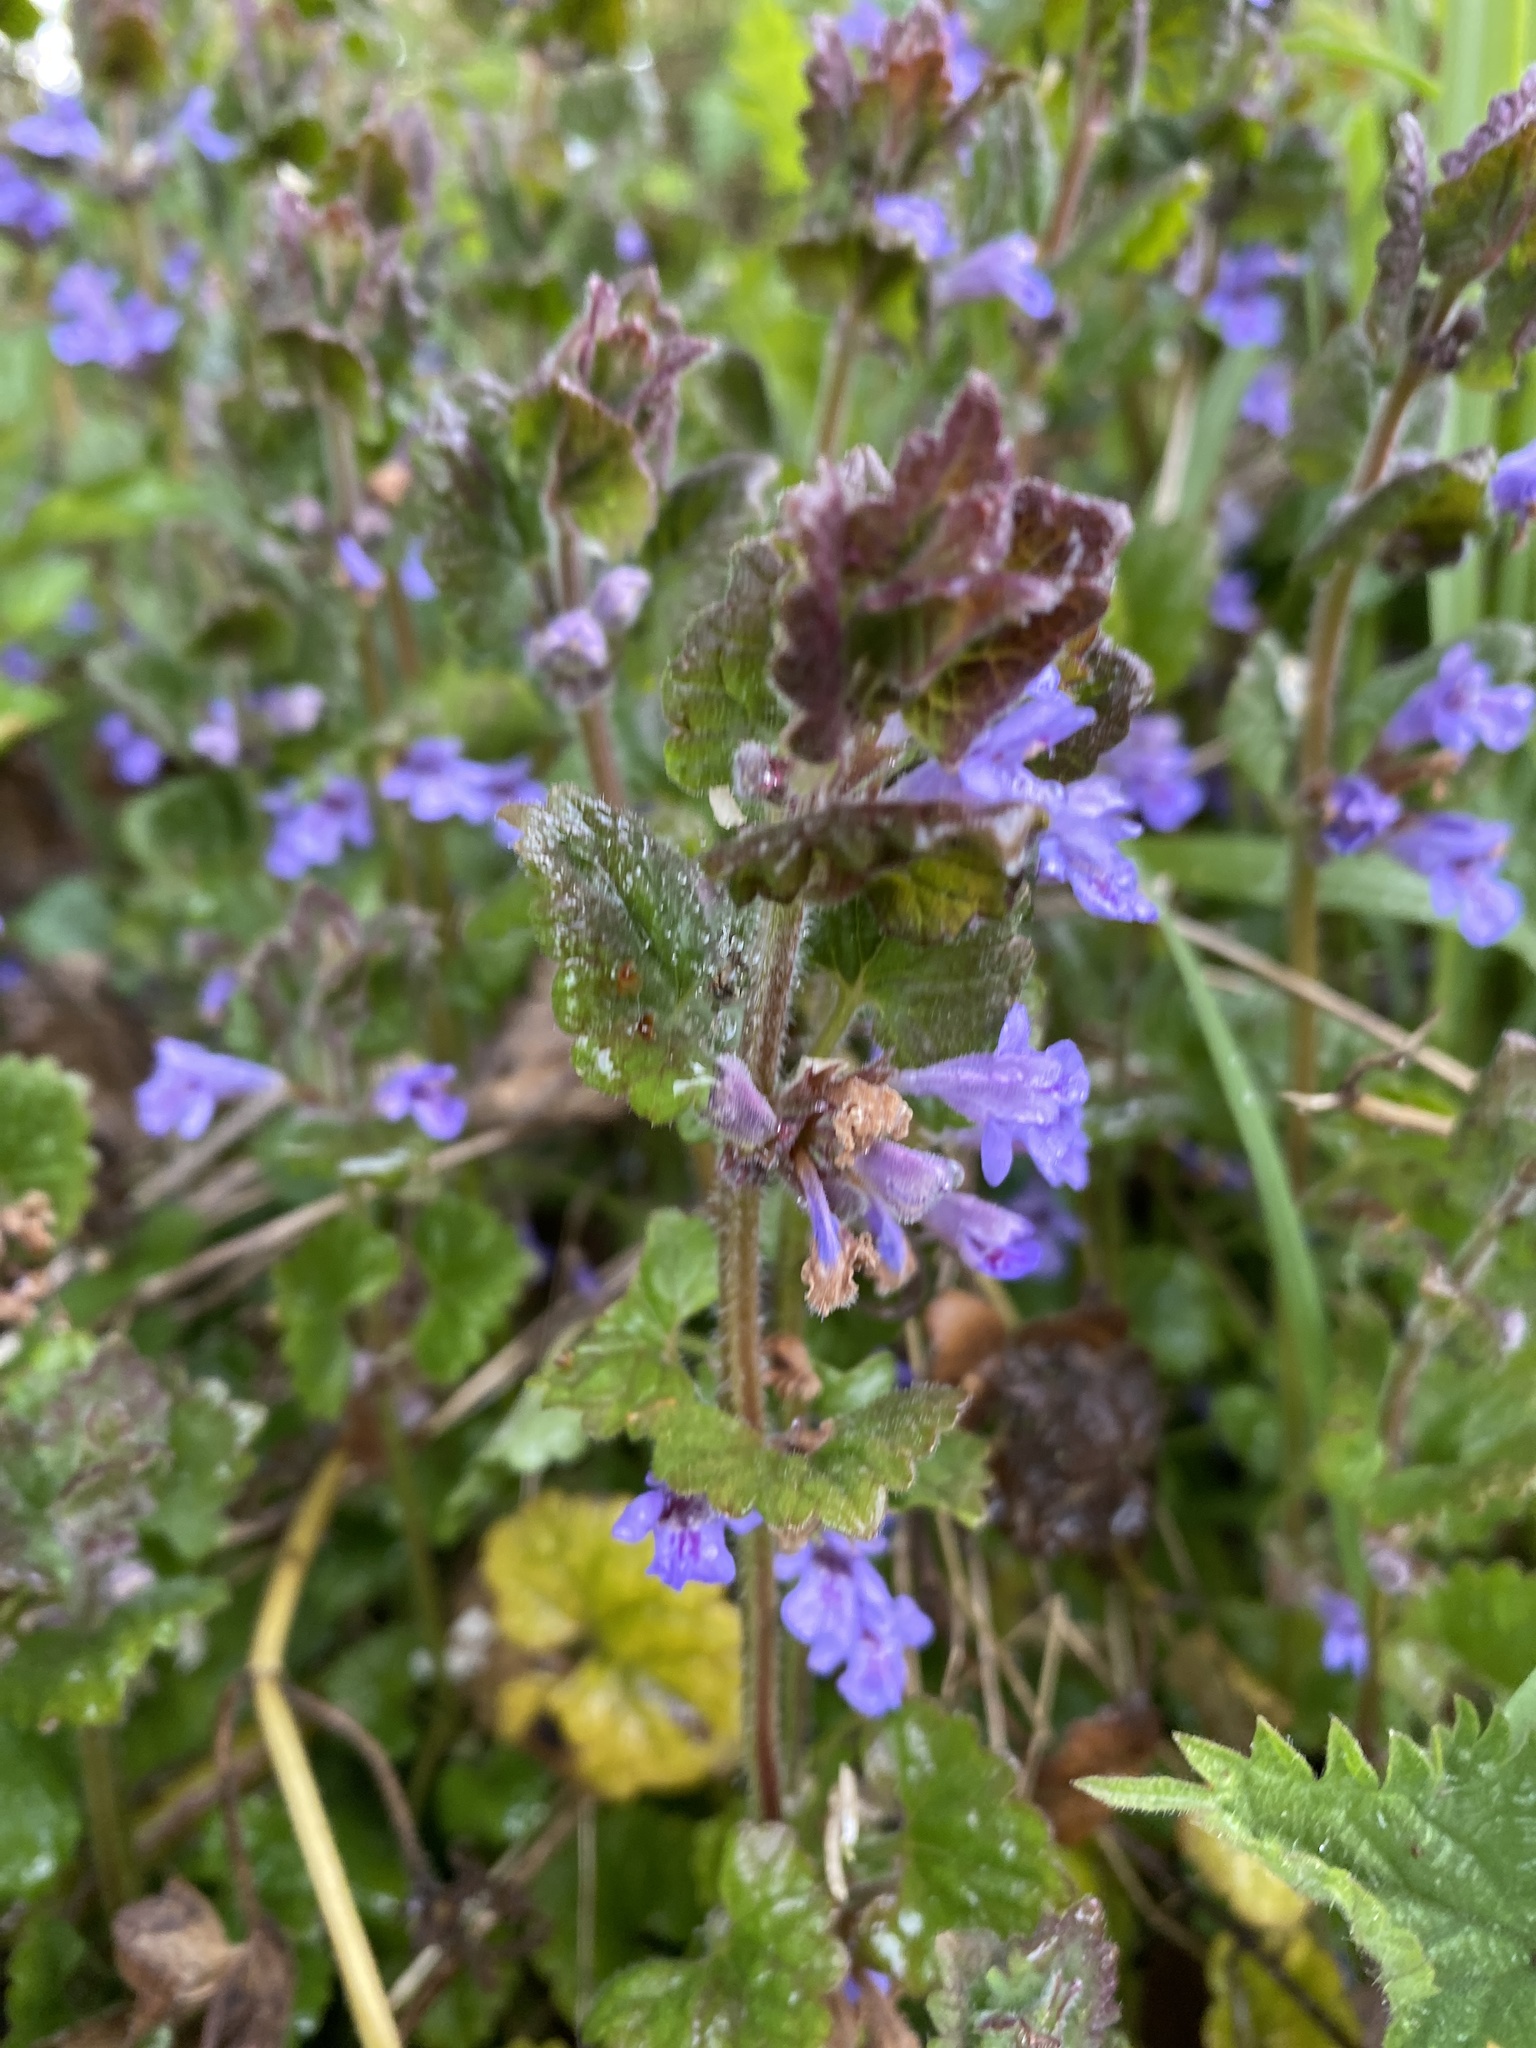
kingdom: Plantae
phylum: Tracheophyta
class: Magnoliopsida
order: Lamiales
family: Lamiaceae
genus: Glechoma
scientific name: Glechoma hederacea
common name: Ground ivy
